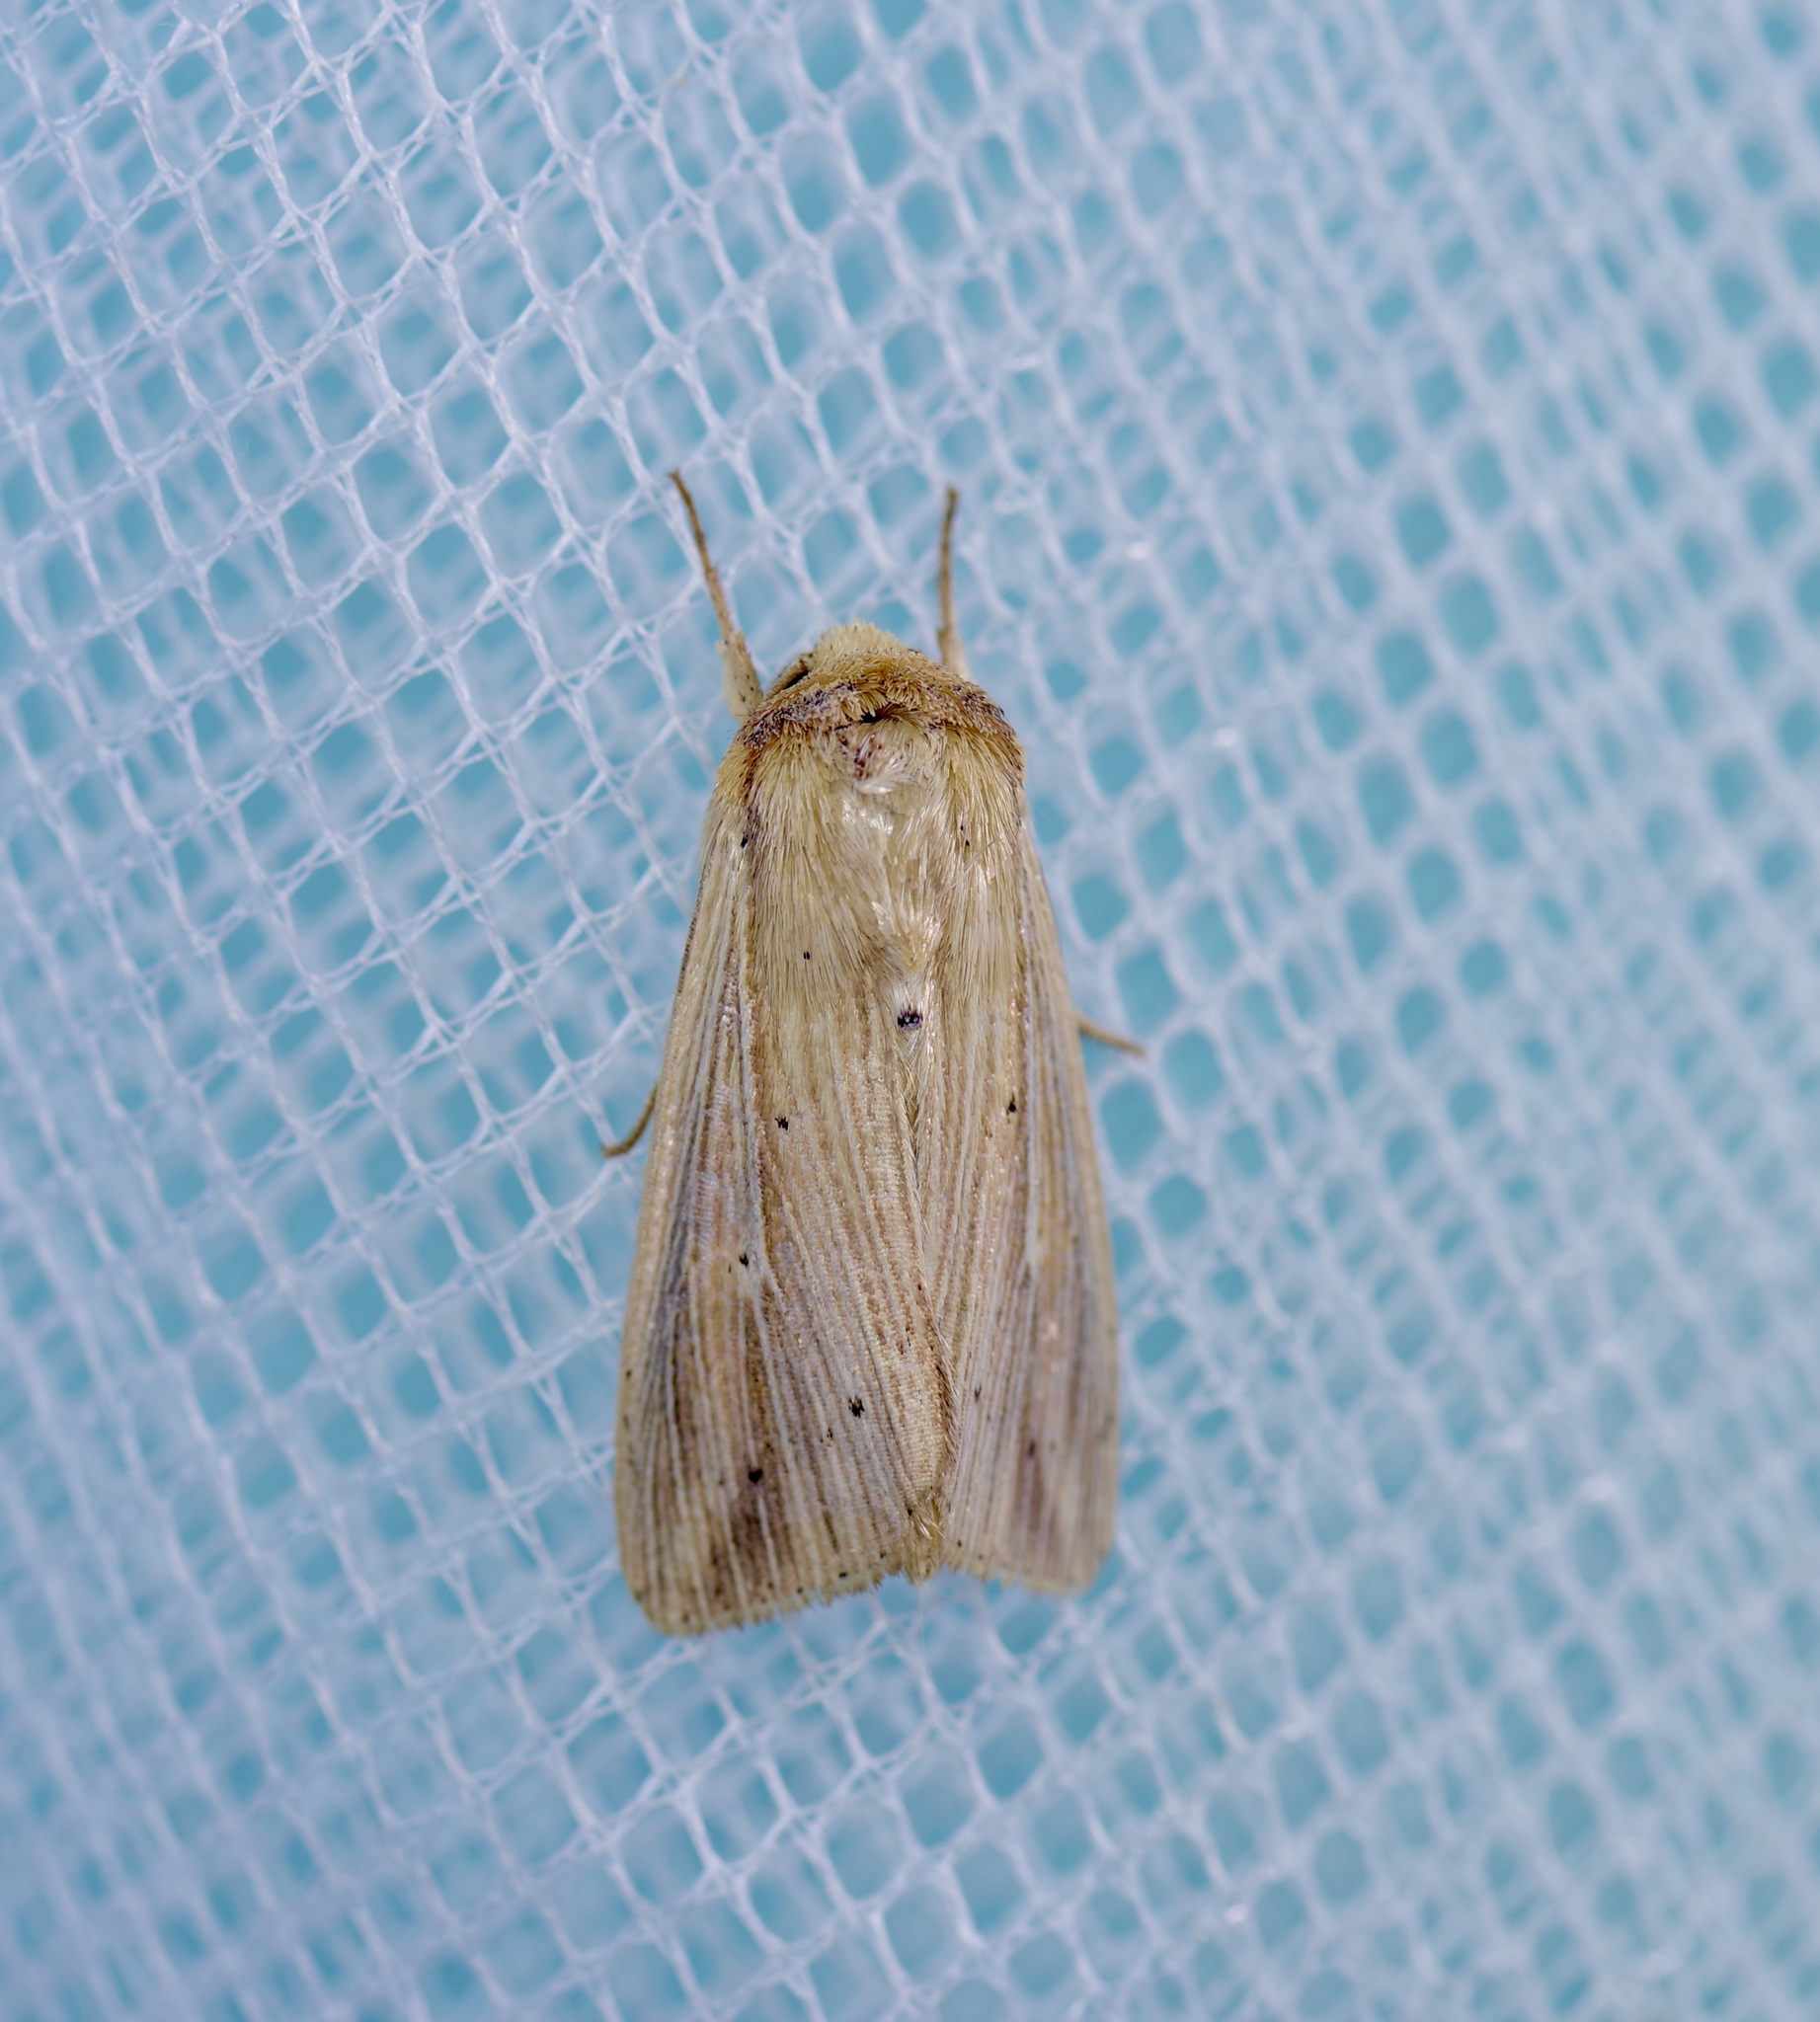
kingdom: Animalia
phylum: Arthropoda
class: Insecta
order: Lepidoptera
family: Noctuidae
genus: Leucania
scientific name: Leucania adjuta
